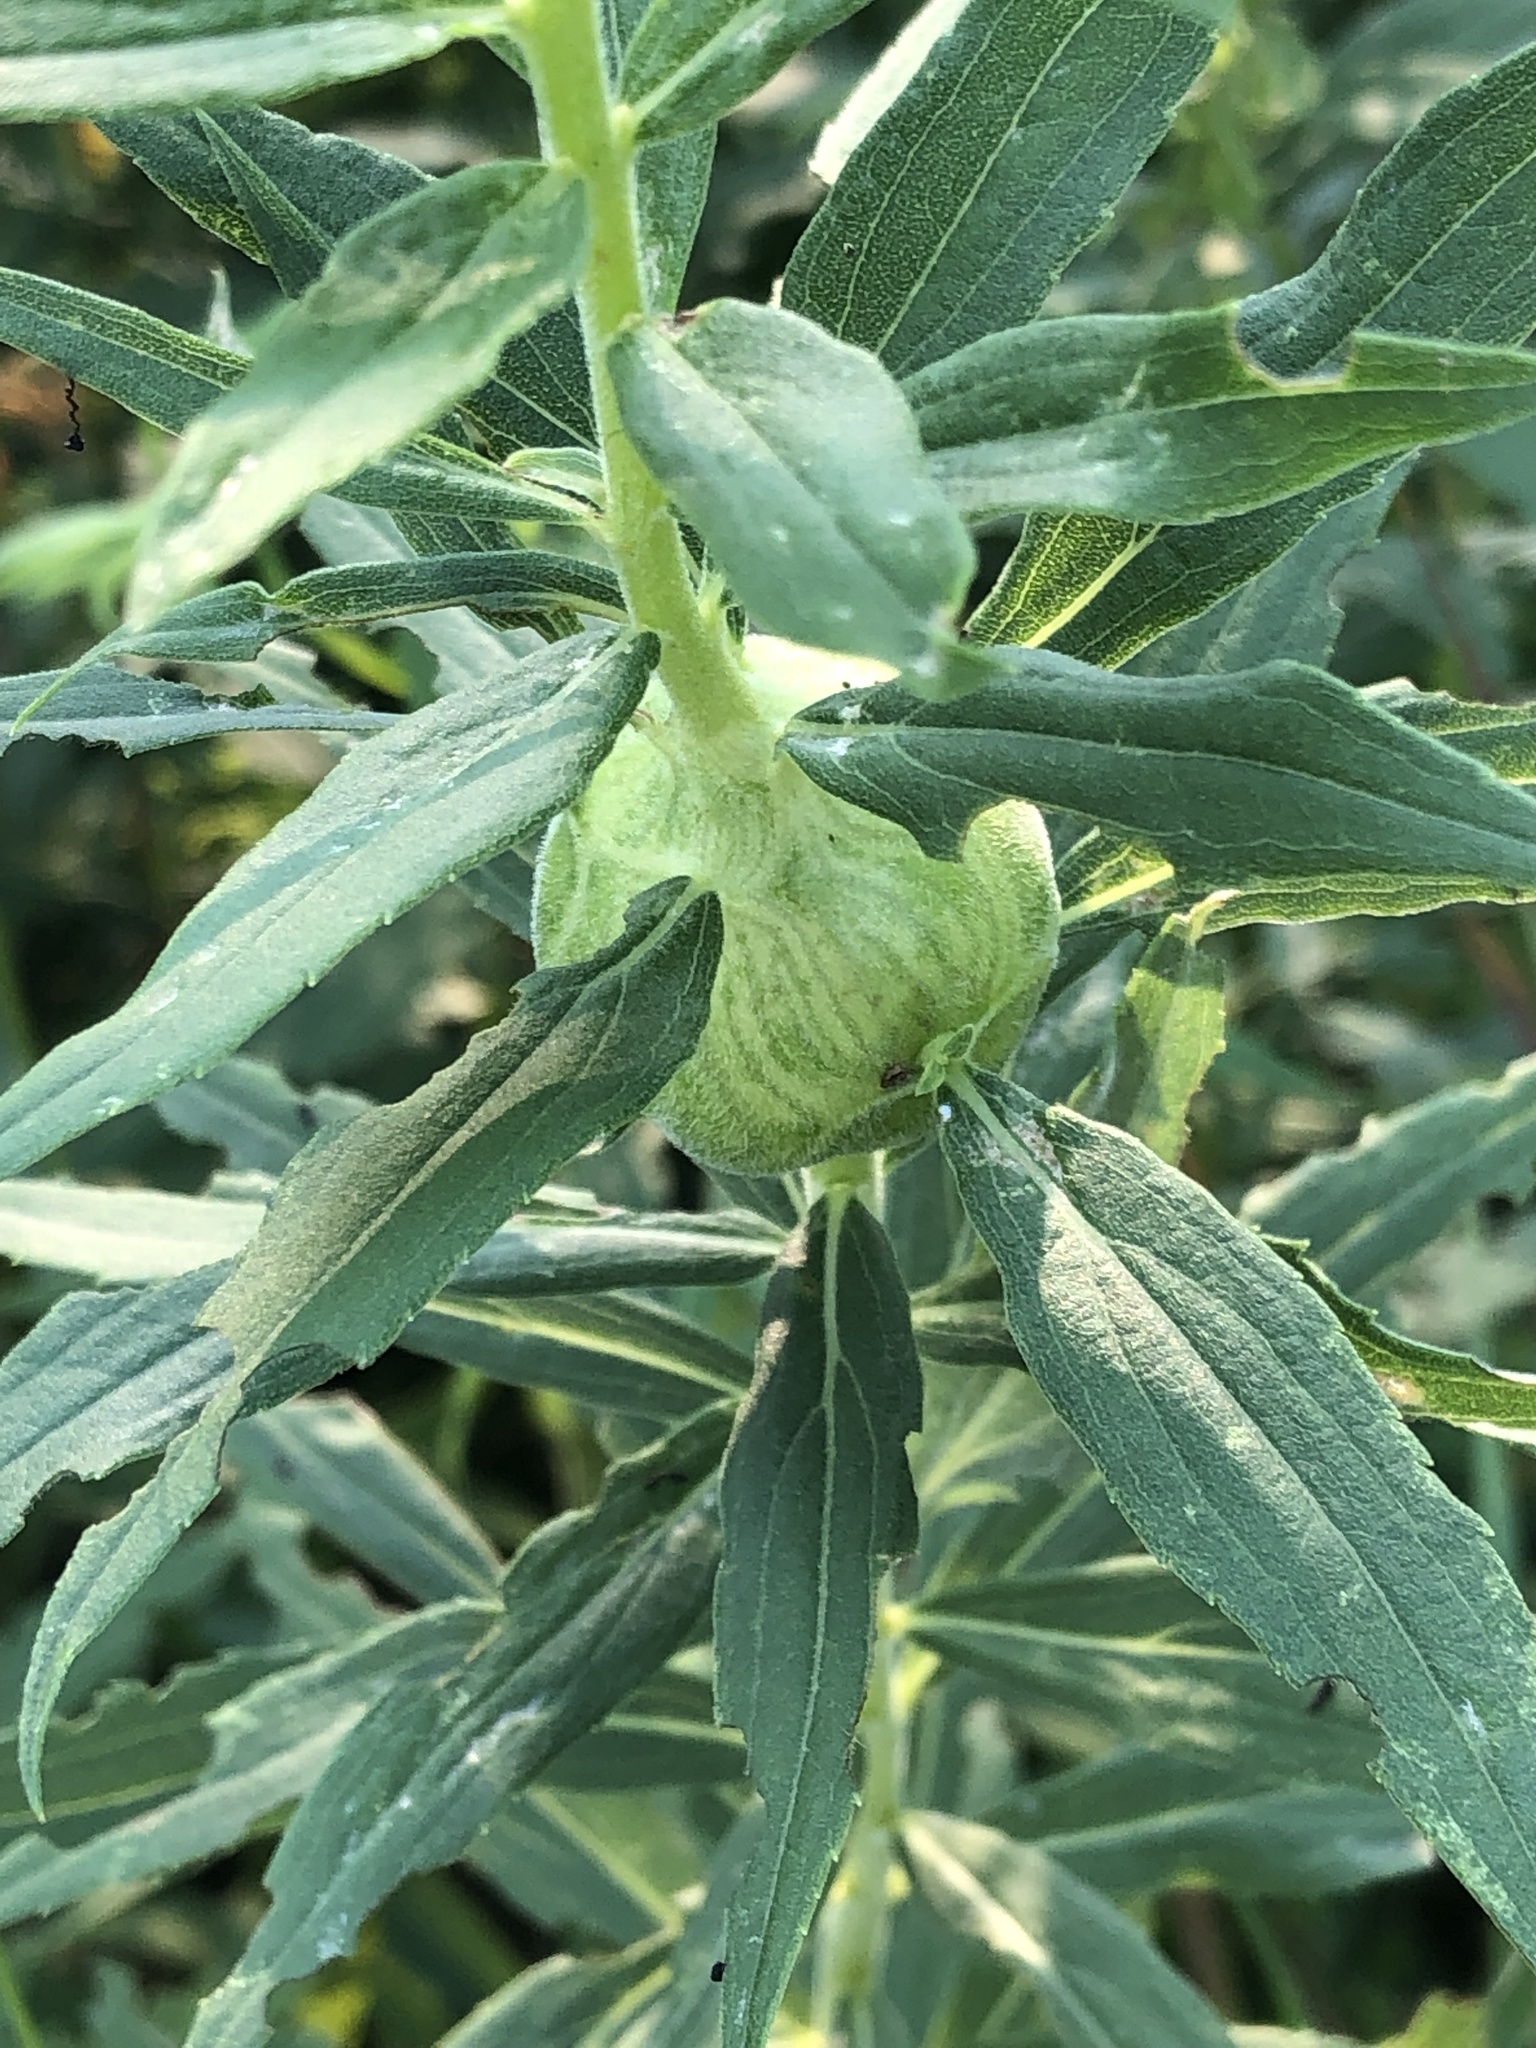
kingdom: Animalia
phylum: Arthropoda
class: Insecta
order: Diptera
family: Tephritidae
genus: Eurosta
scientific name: Eurosta solidaginis
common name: Goldenrod gall fly
